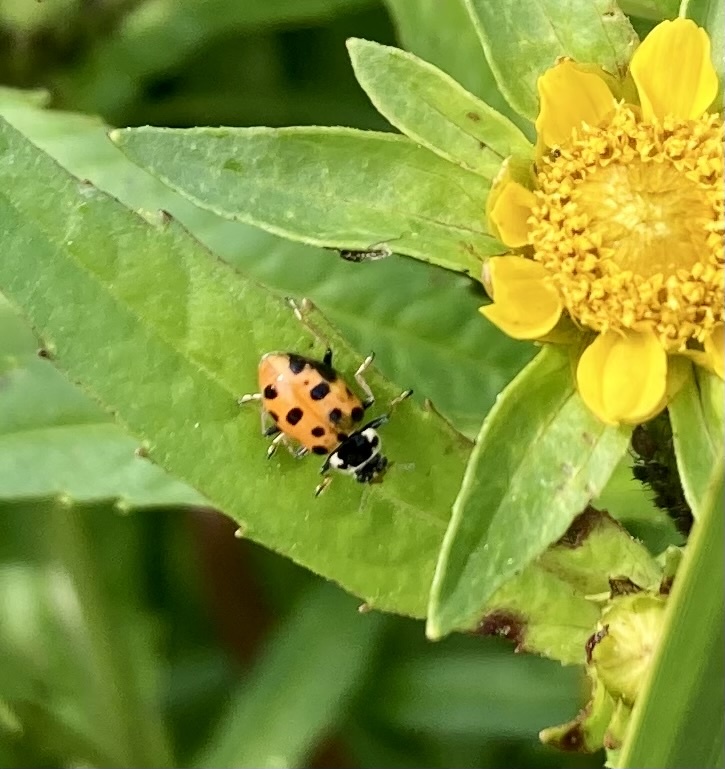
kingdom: Animalia
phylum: Arthropoda
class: Insecta
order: Coleoptera
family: Coccinellidae
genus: Hippodamia
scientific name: Hippodamia tredecimpunctata
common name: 13-spot ladybird
